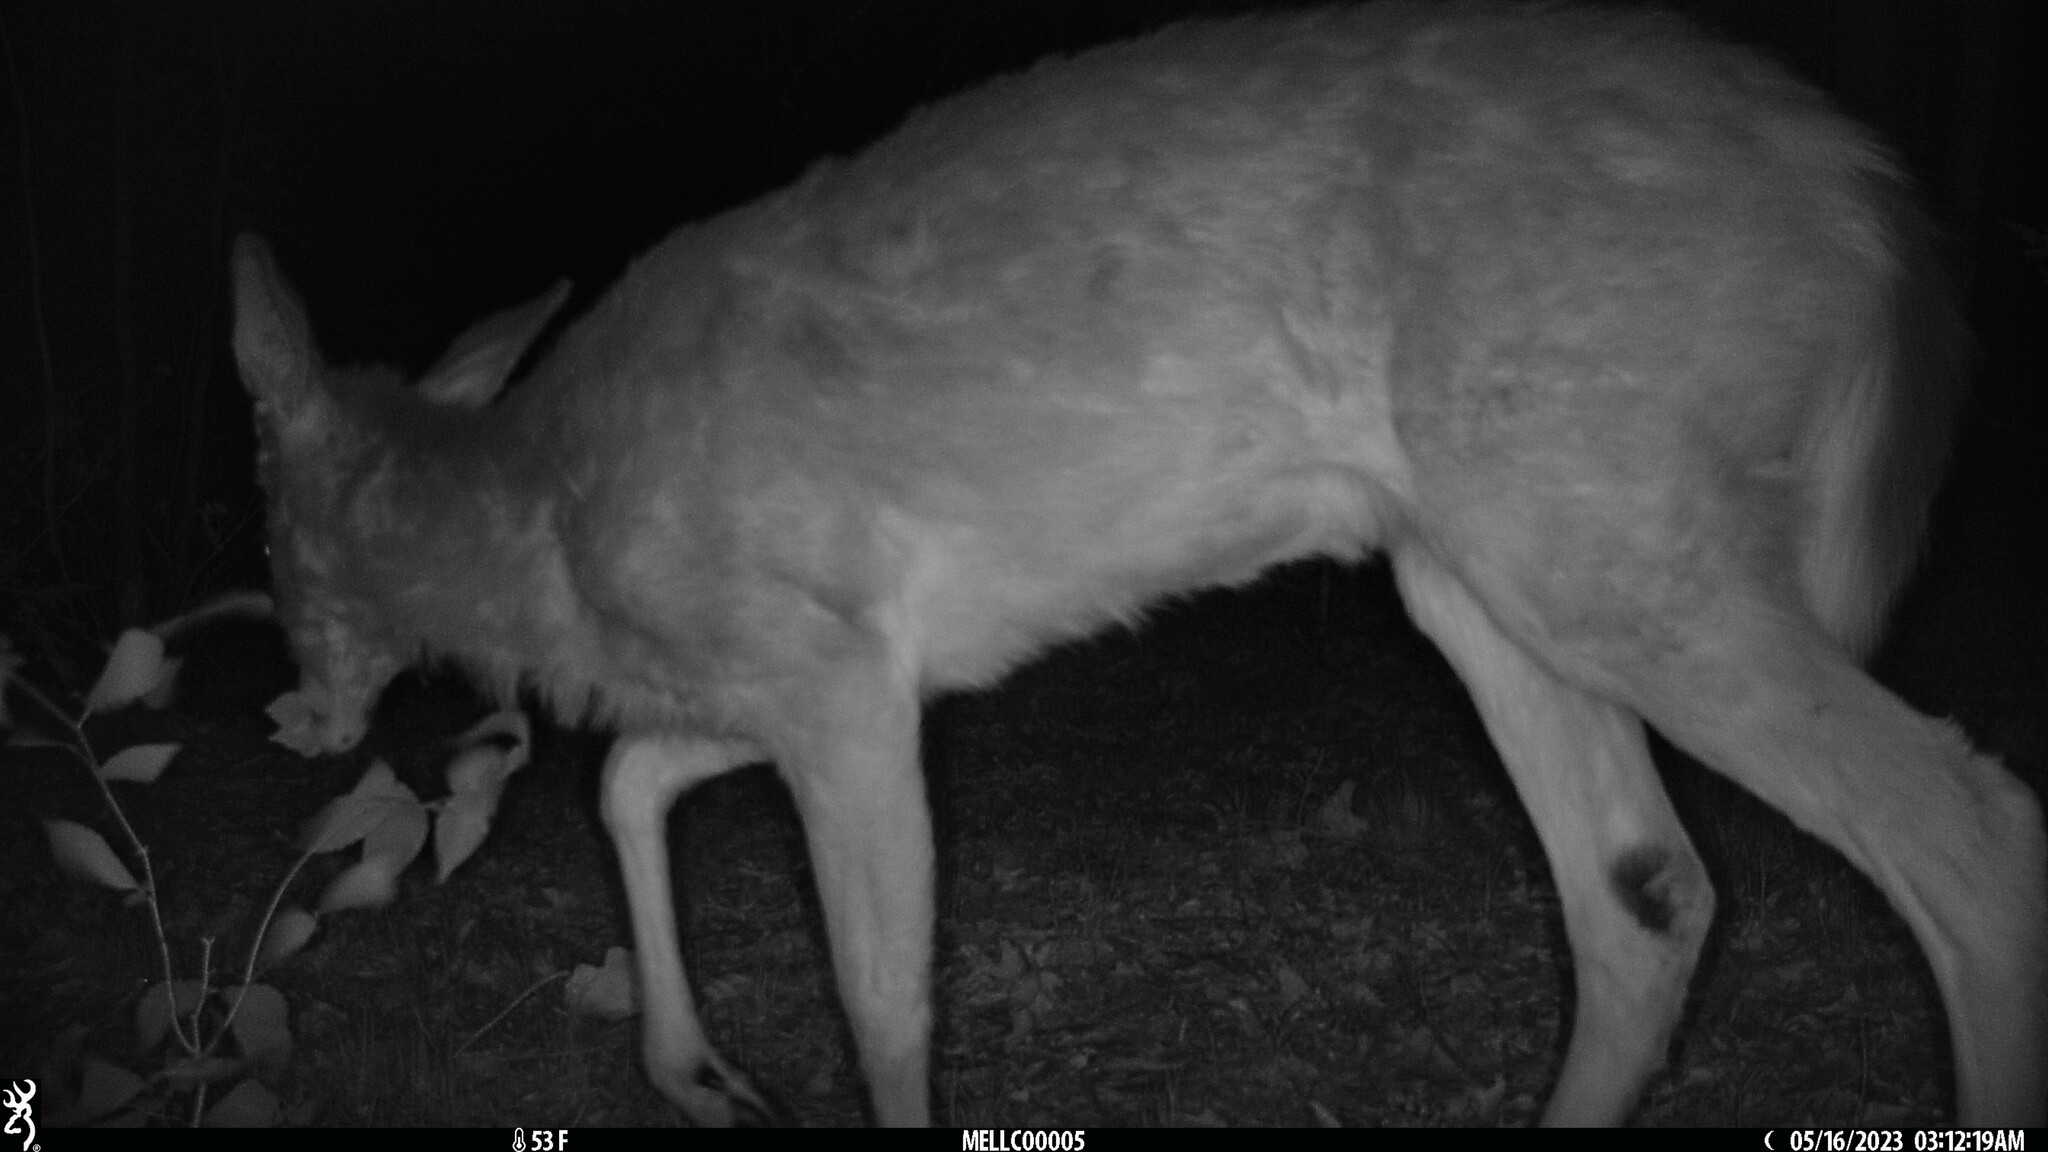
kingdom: Animalia
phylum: Chordata
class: Mammalia
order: Artiodactyla
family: Cervidae
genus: Odocoileus
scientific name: Odocoileus virginianus
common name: White-tailed deer
